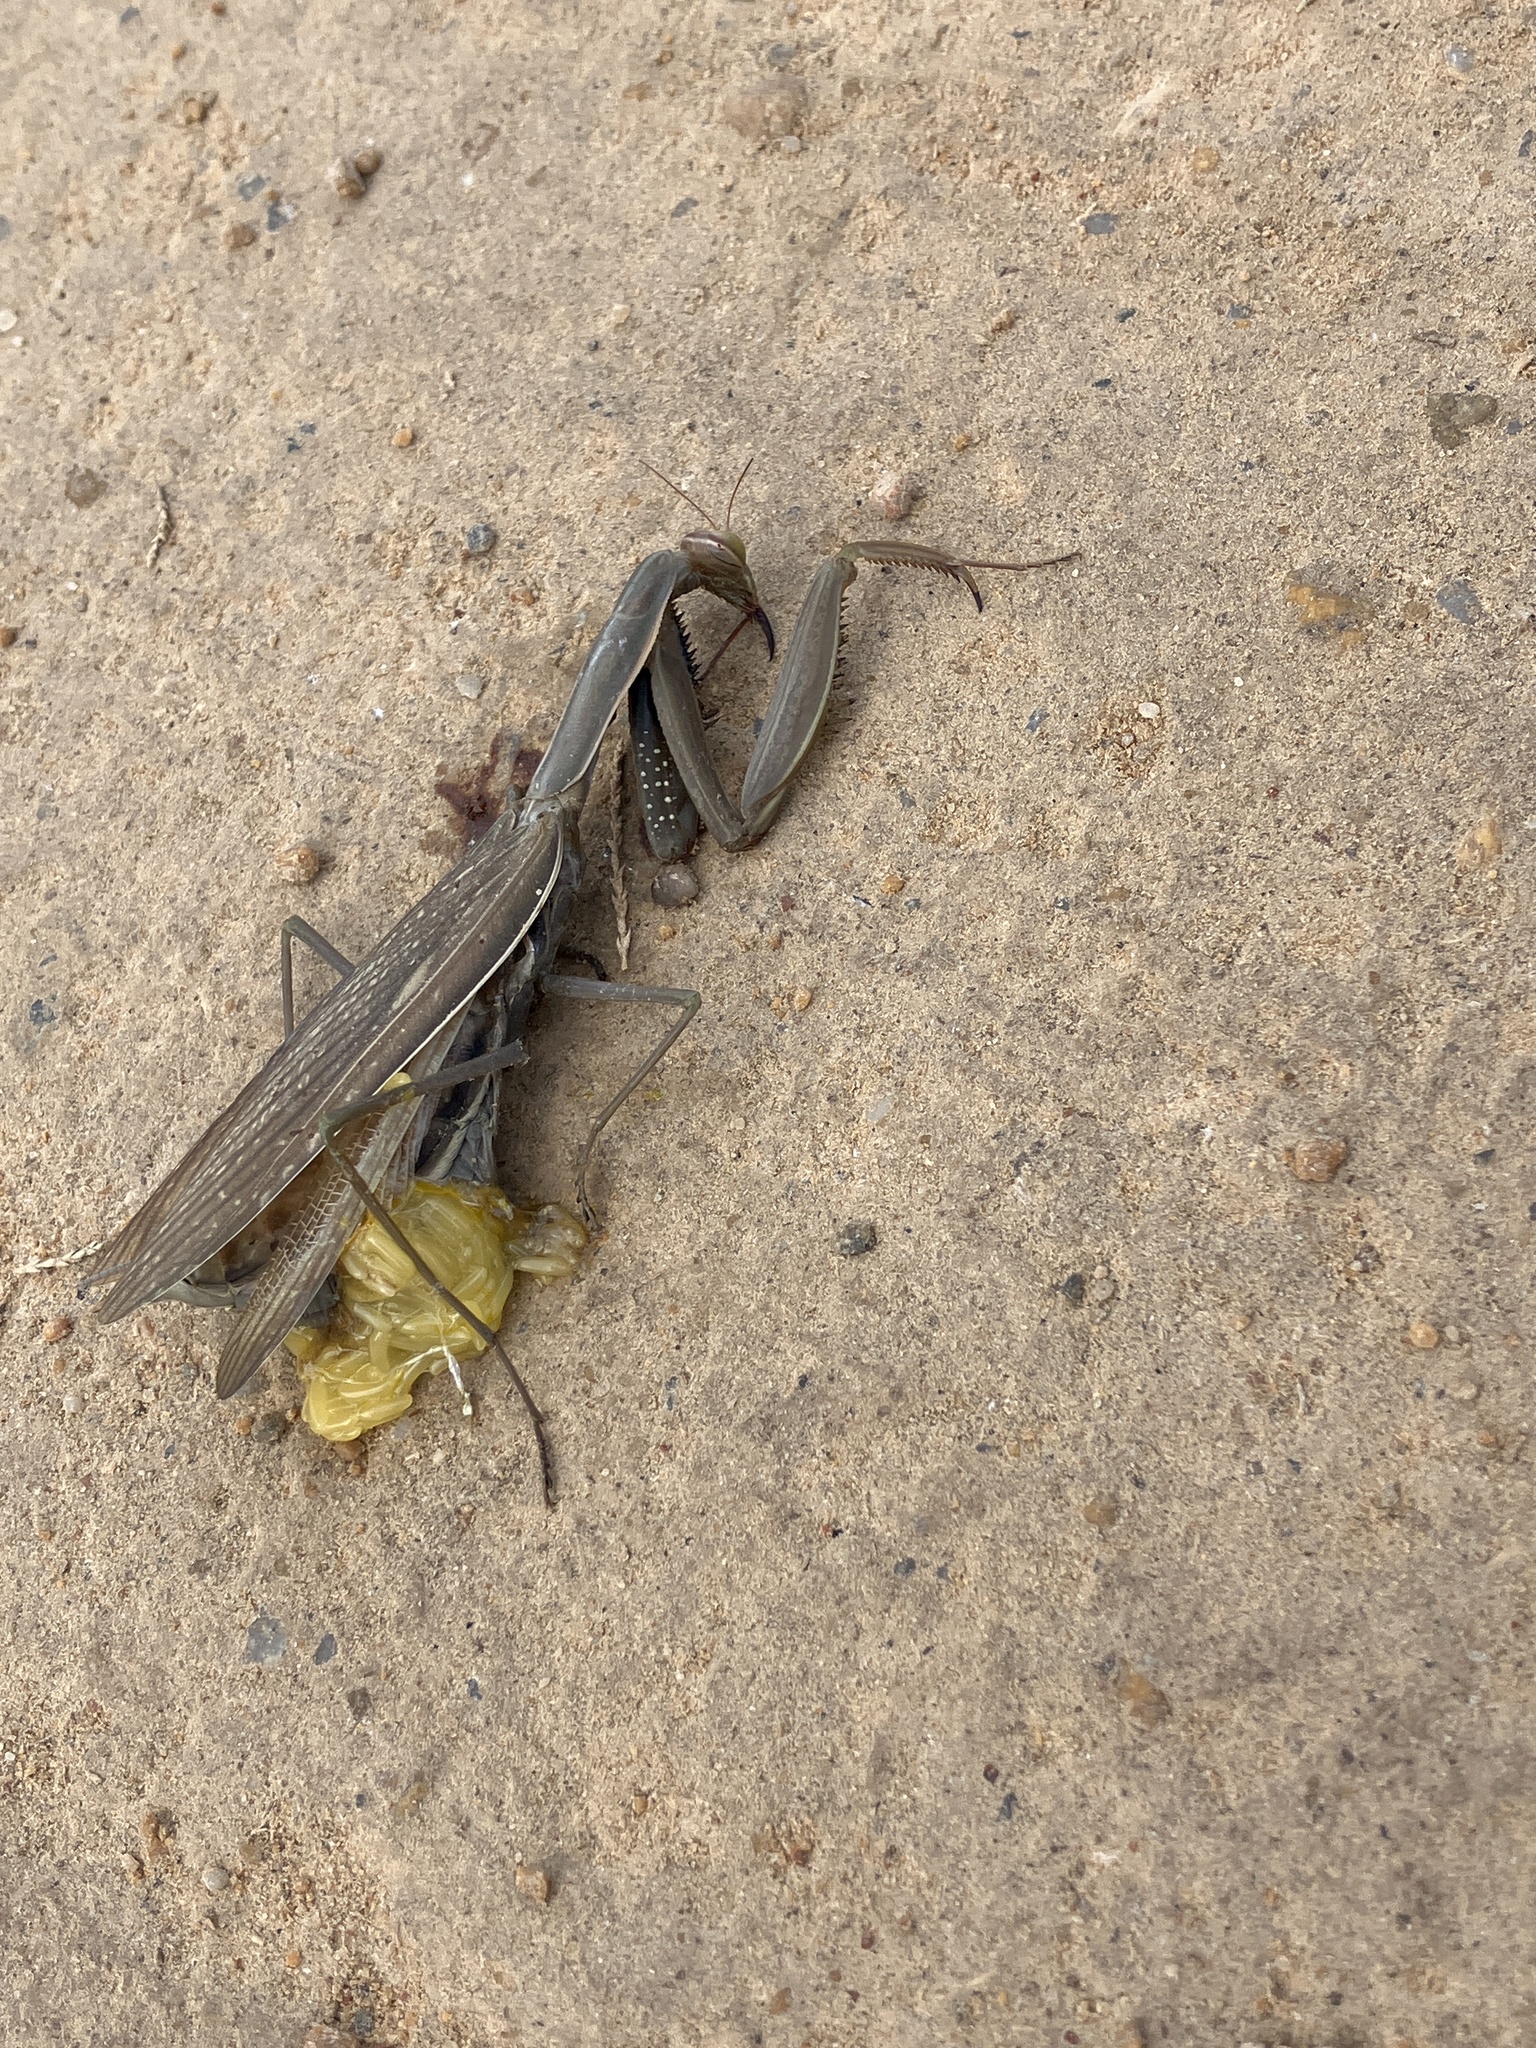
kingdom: Animalia
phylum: Arthropoda
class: Insecta
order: Mantodea
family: Mantidae
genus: Mantis
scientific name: Mantis religiosa
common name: Praying mantis
